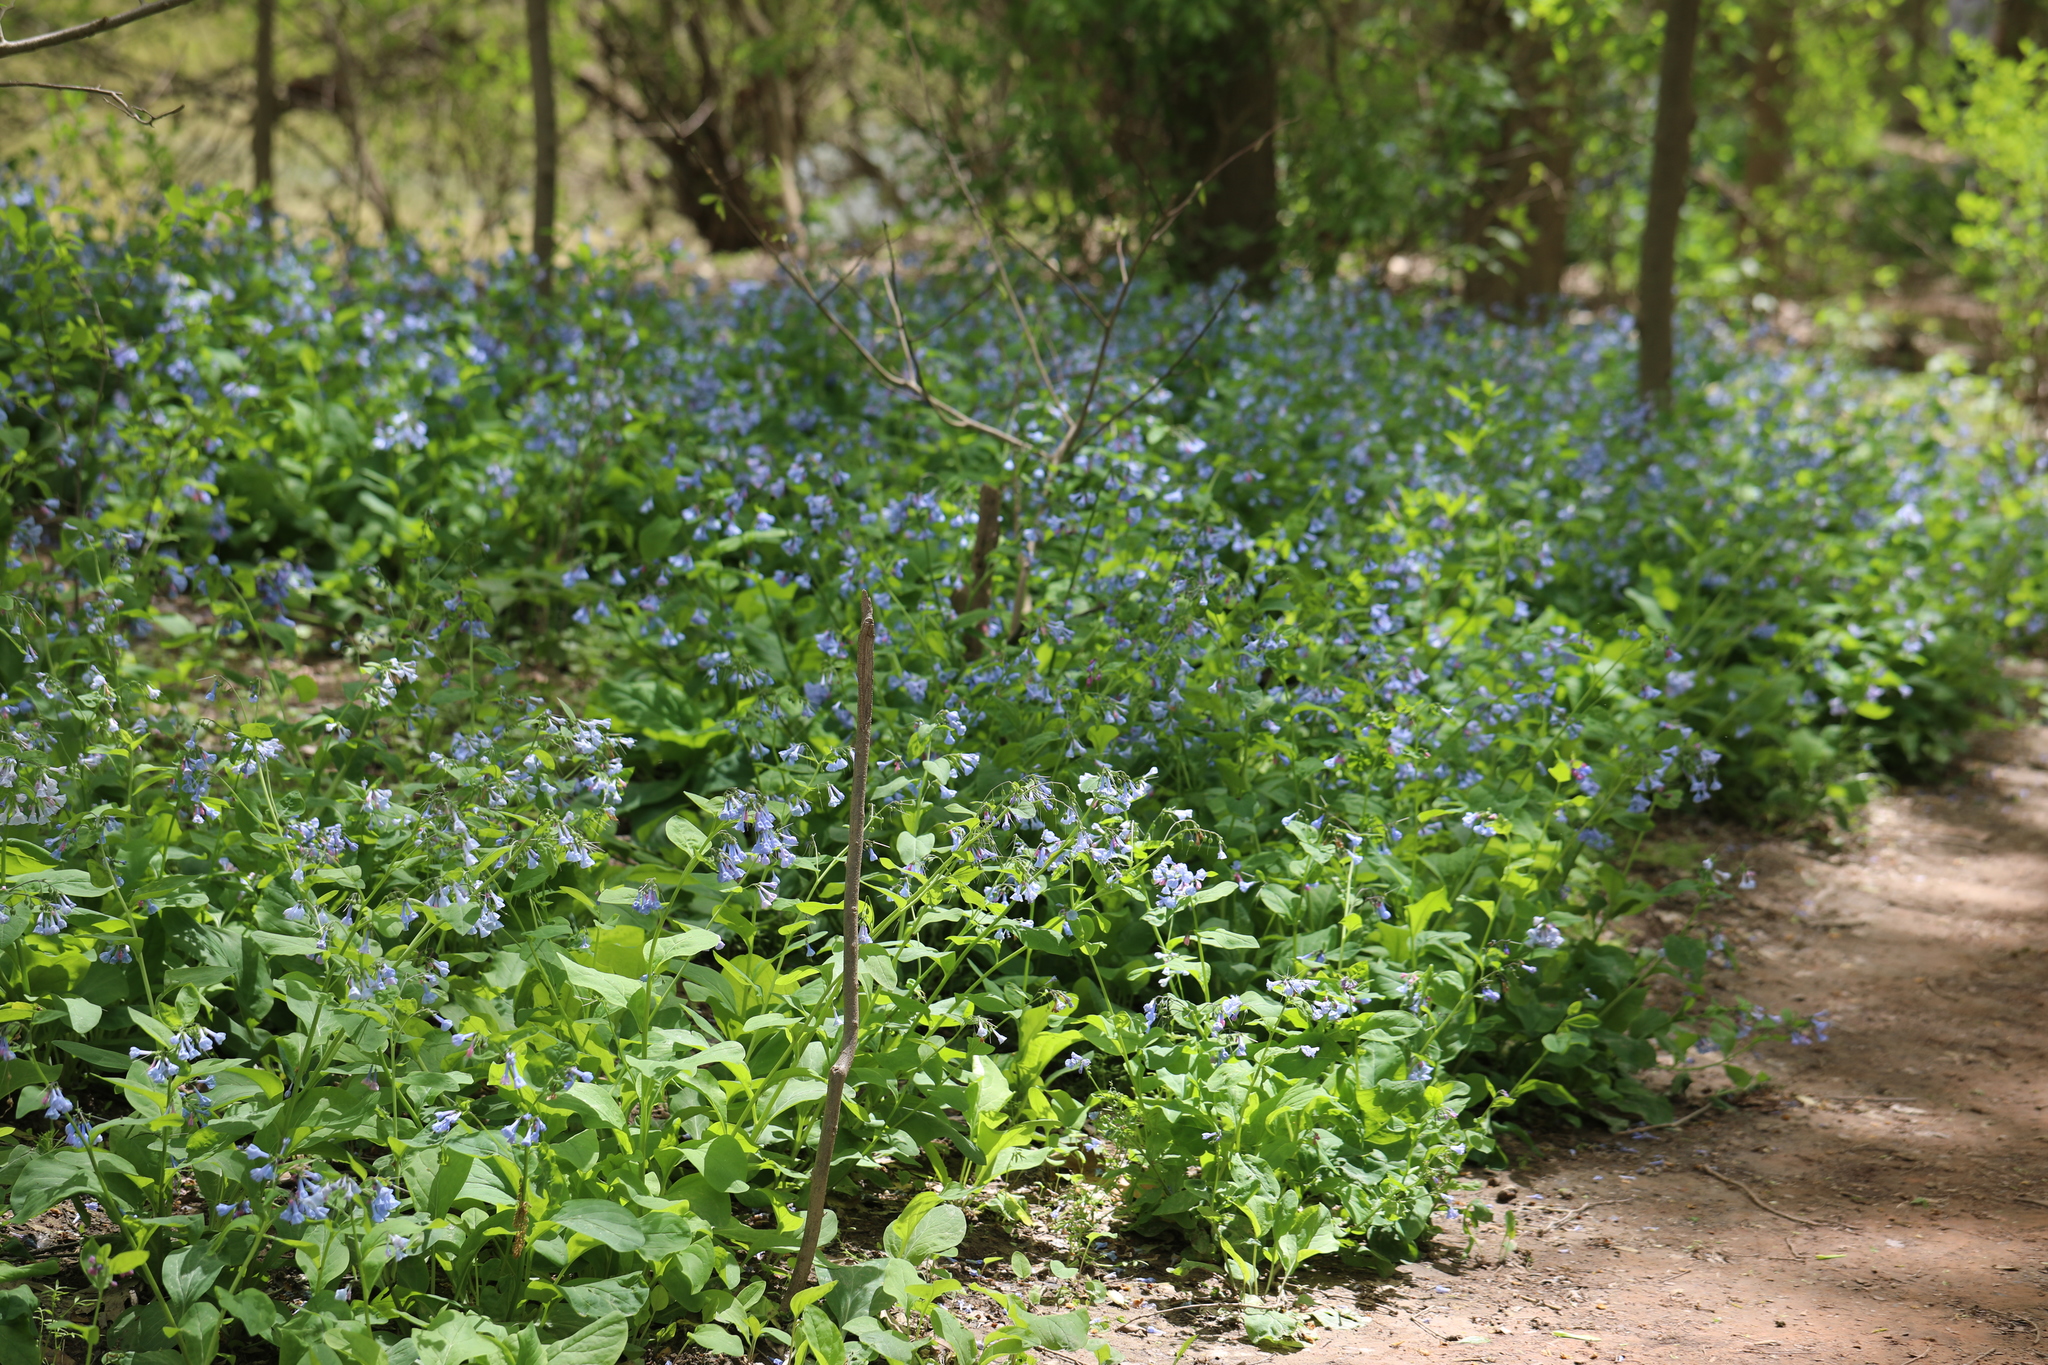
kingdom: Plantae
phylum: Tracheophyta
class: Magnoliopsida
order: Boraginales
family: Boraginaceae
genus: Mertensia
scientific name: Mertensia virginica
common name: Virginia bluebells
